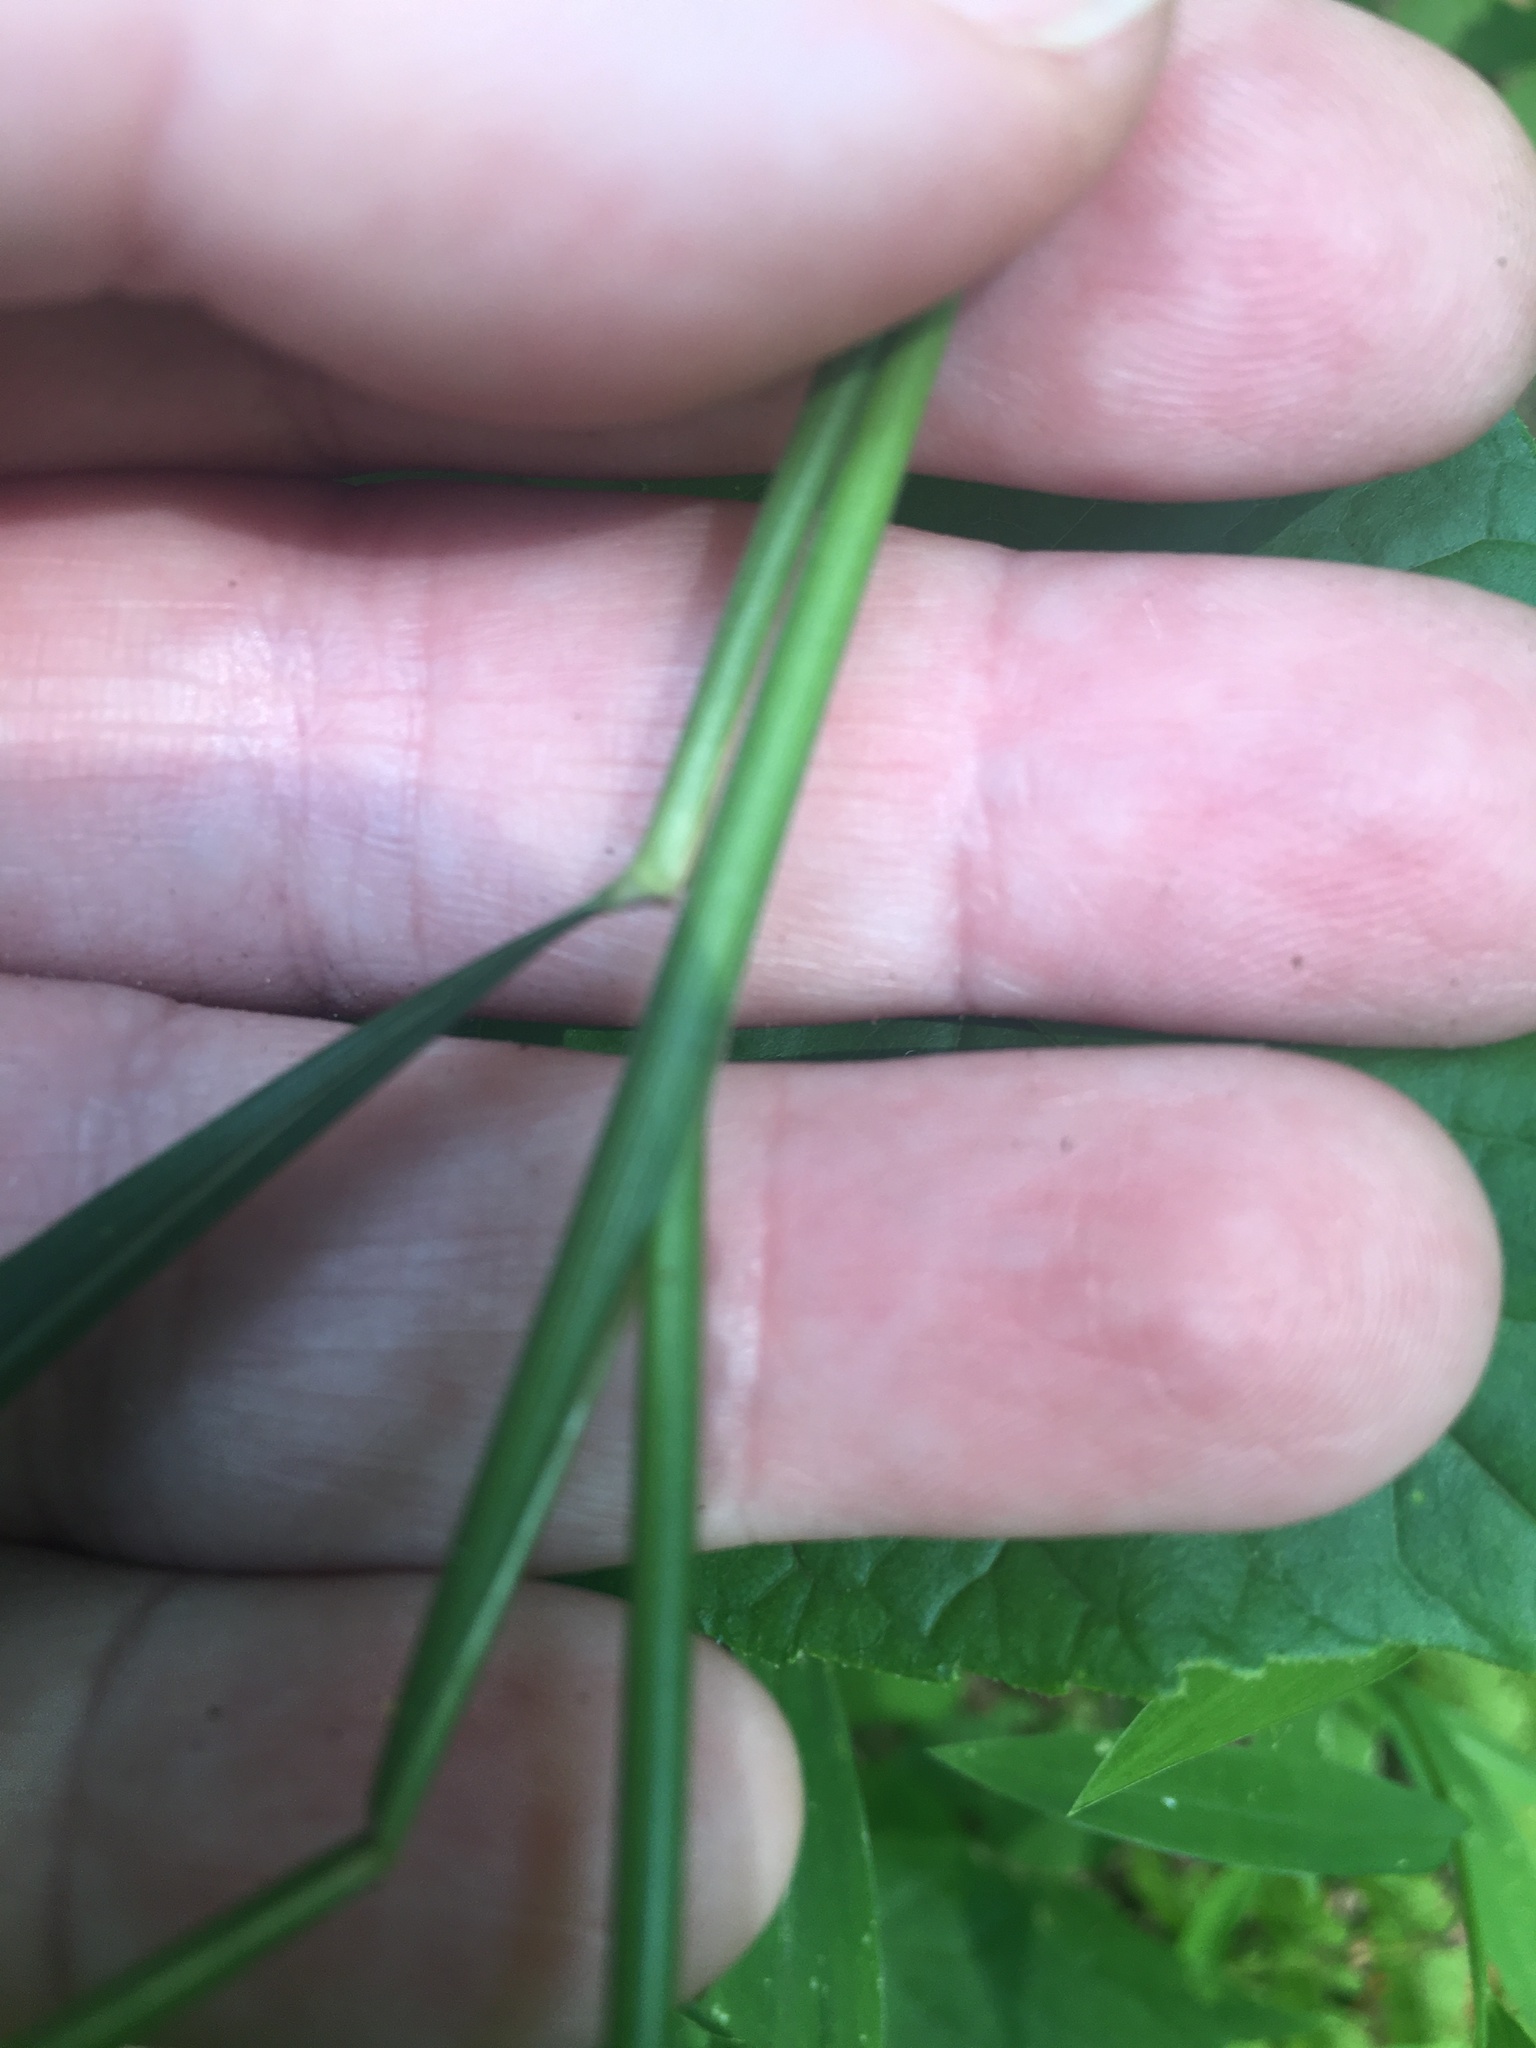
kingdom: Plantae
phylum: Tracheophyta
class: Liliopsida
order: Poales
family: Poaceae
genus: Elymus
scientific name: Elymus virginicus
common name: Common eastern wildrye
